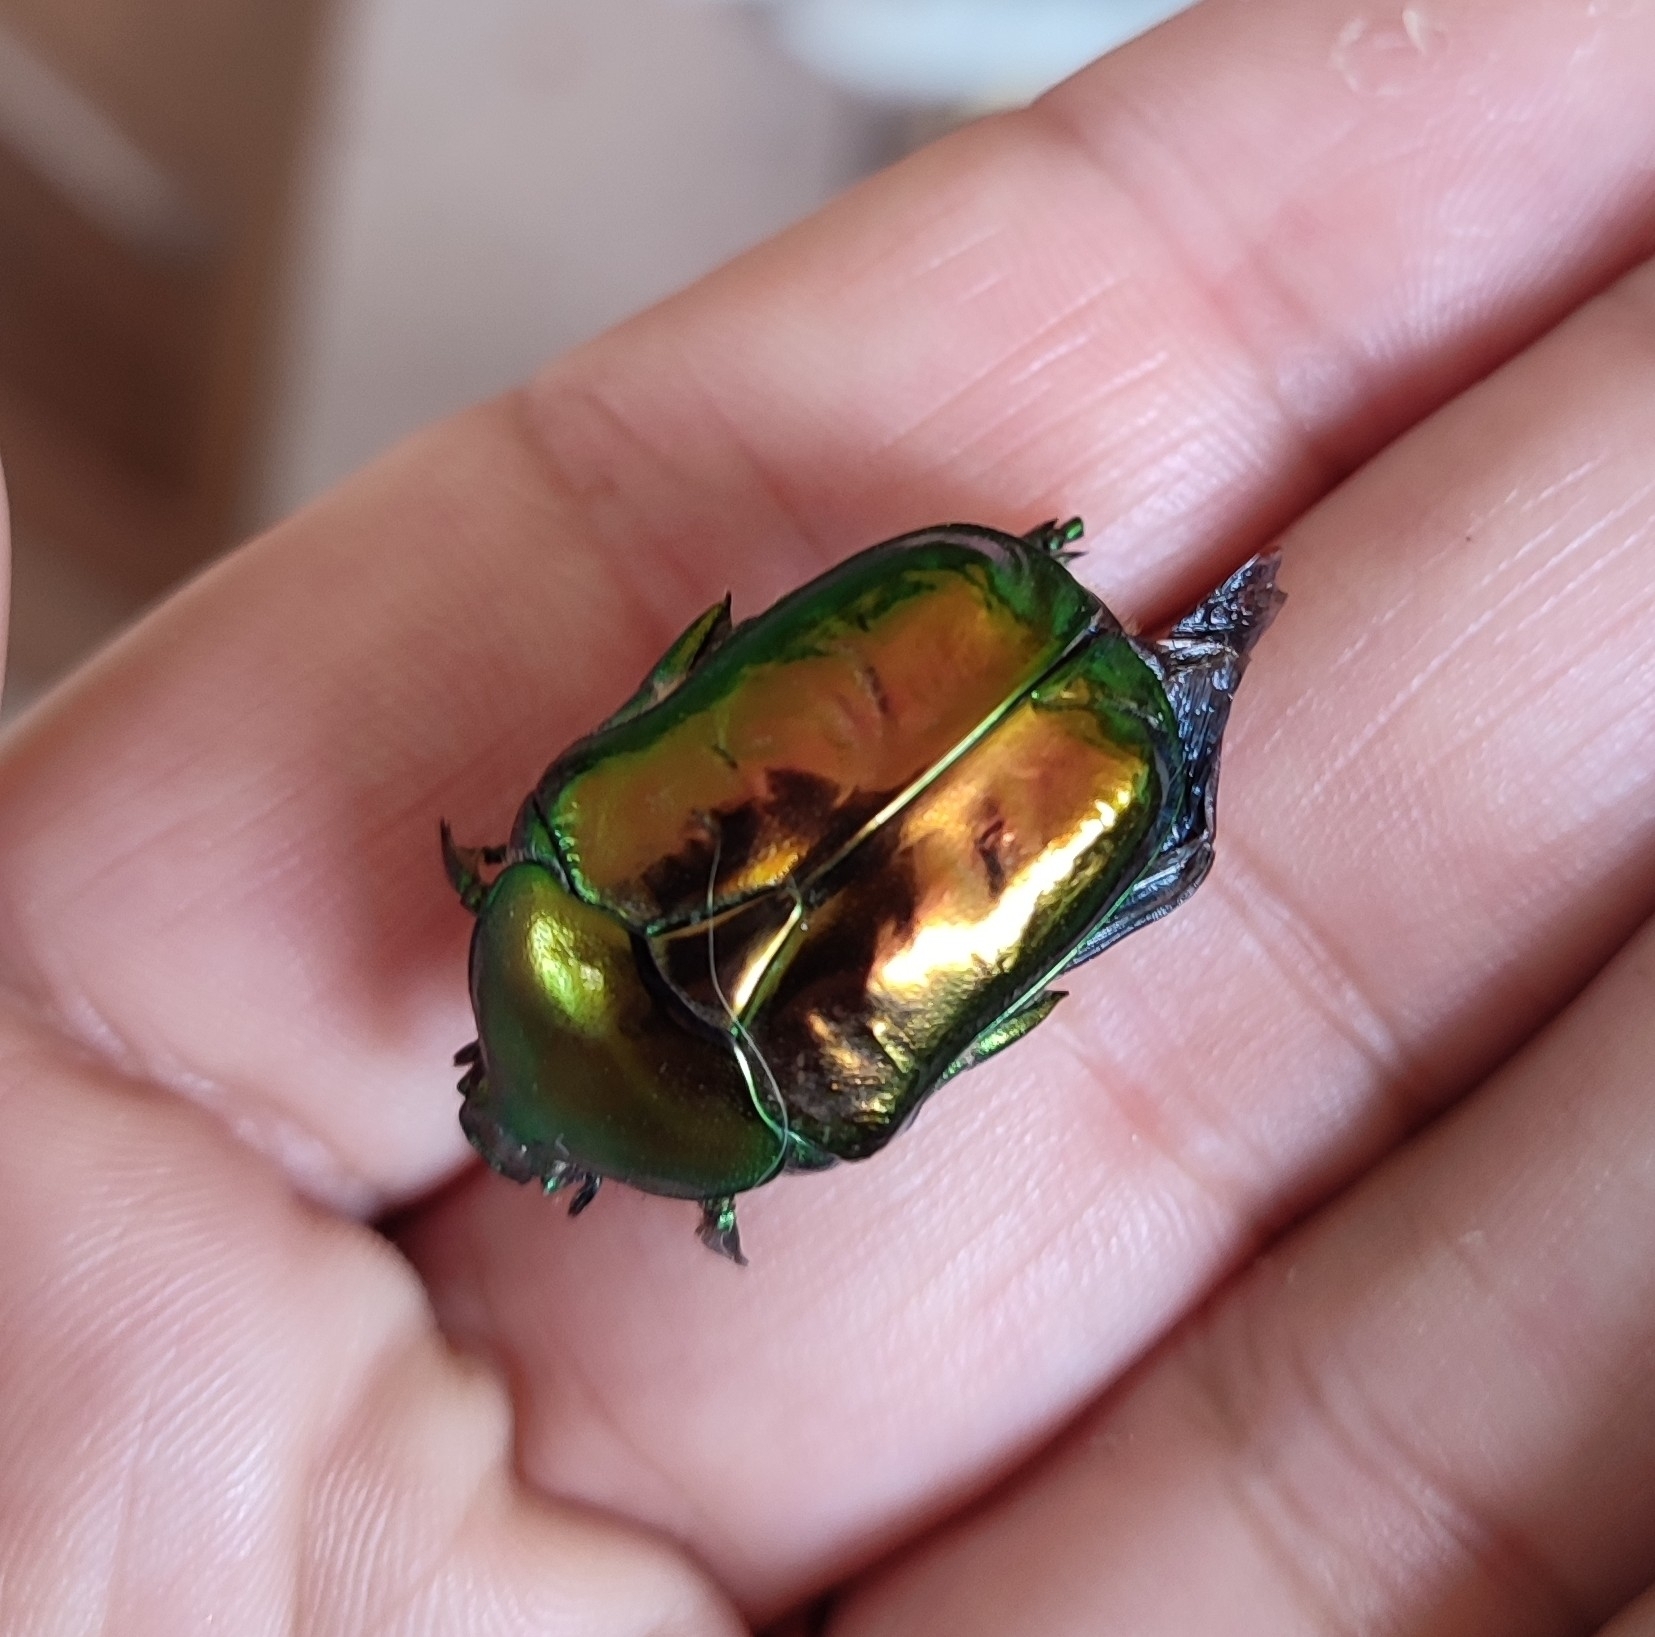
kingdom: Animalia
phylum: Arthropoda
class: Insecta
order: Coleoptera
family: Scarabaeidae
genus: Protaetia
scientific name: Protaetia speciosissima
